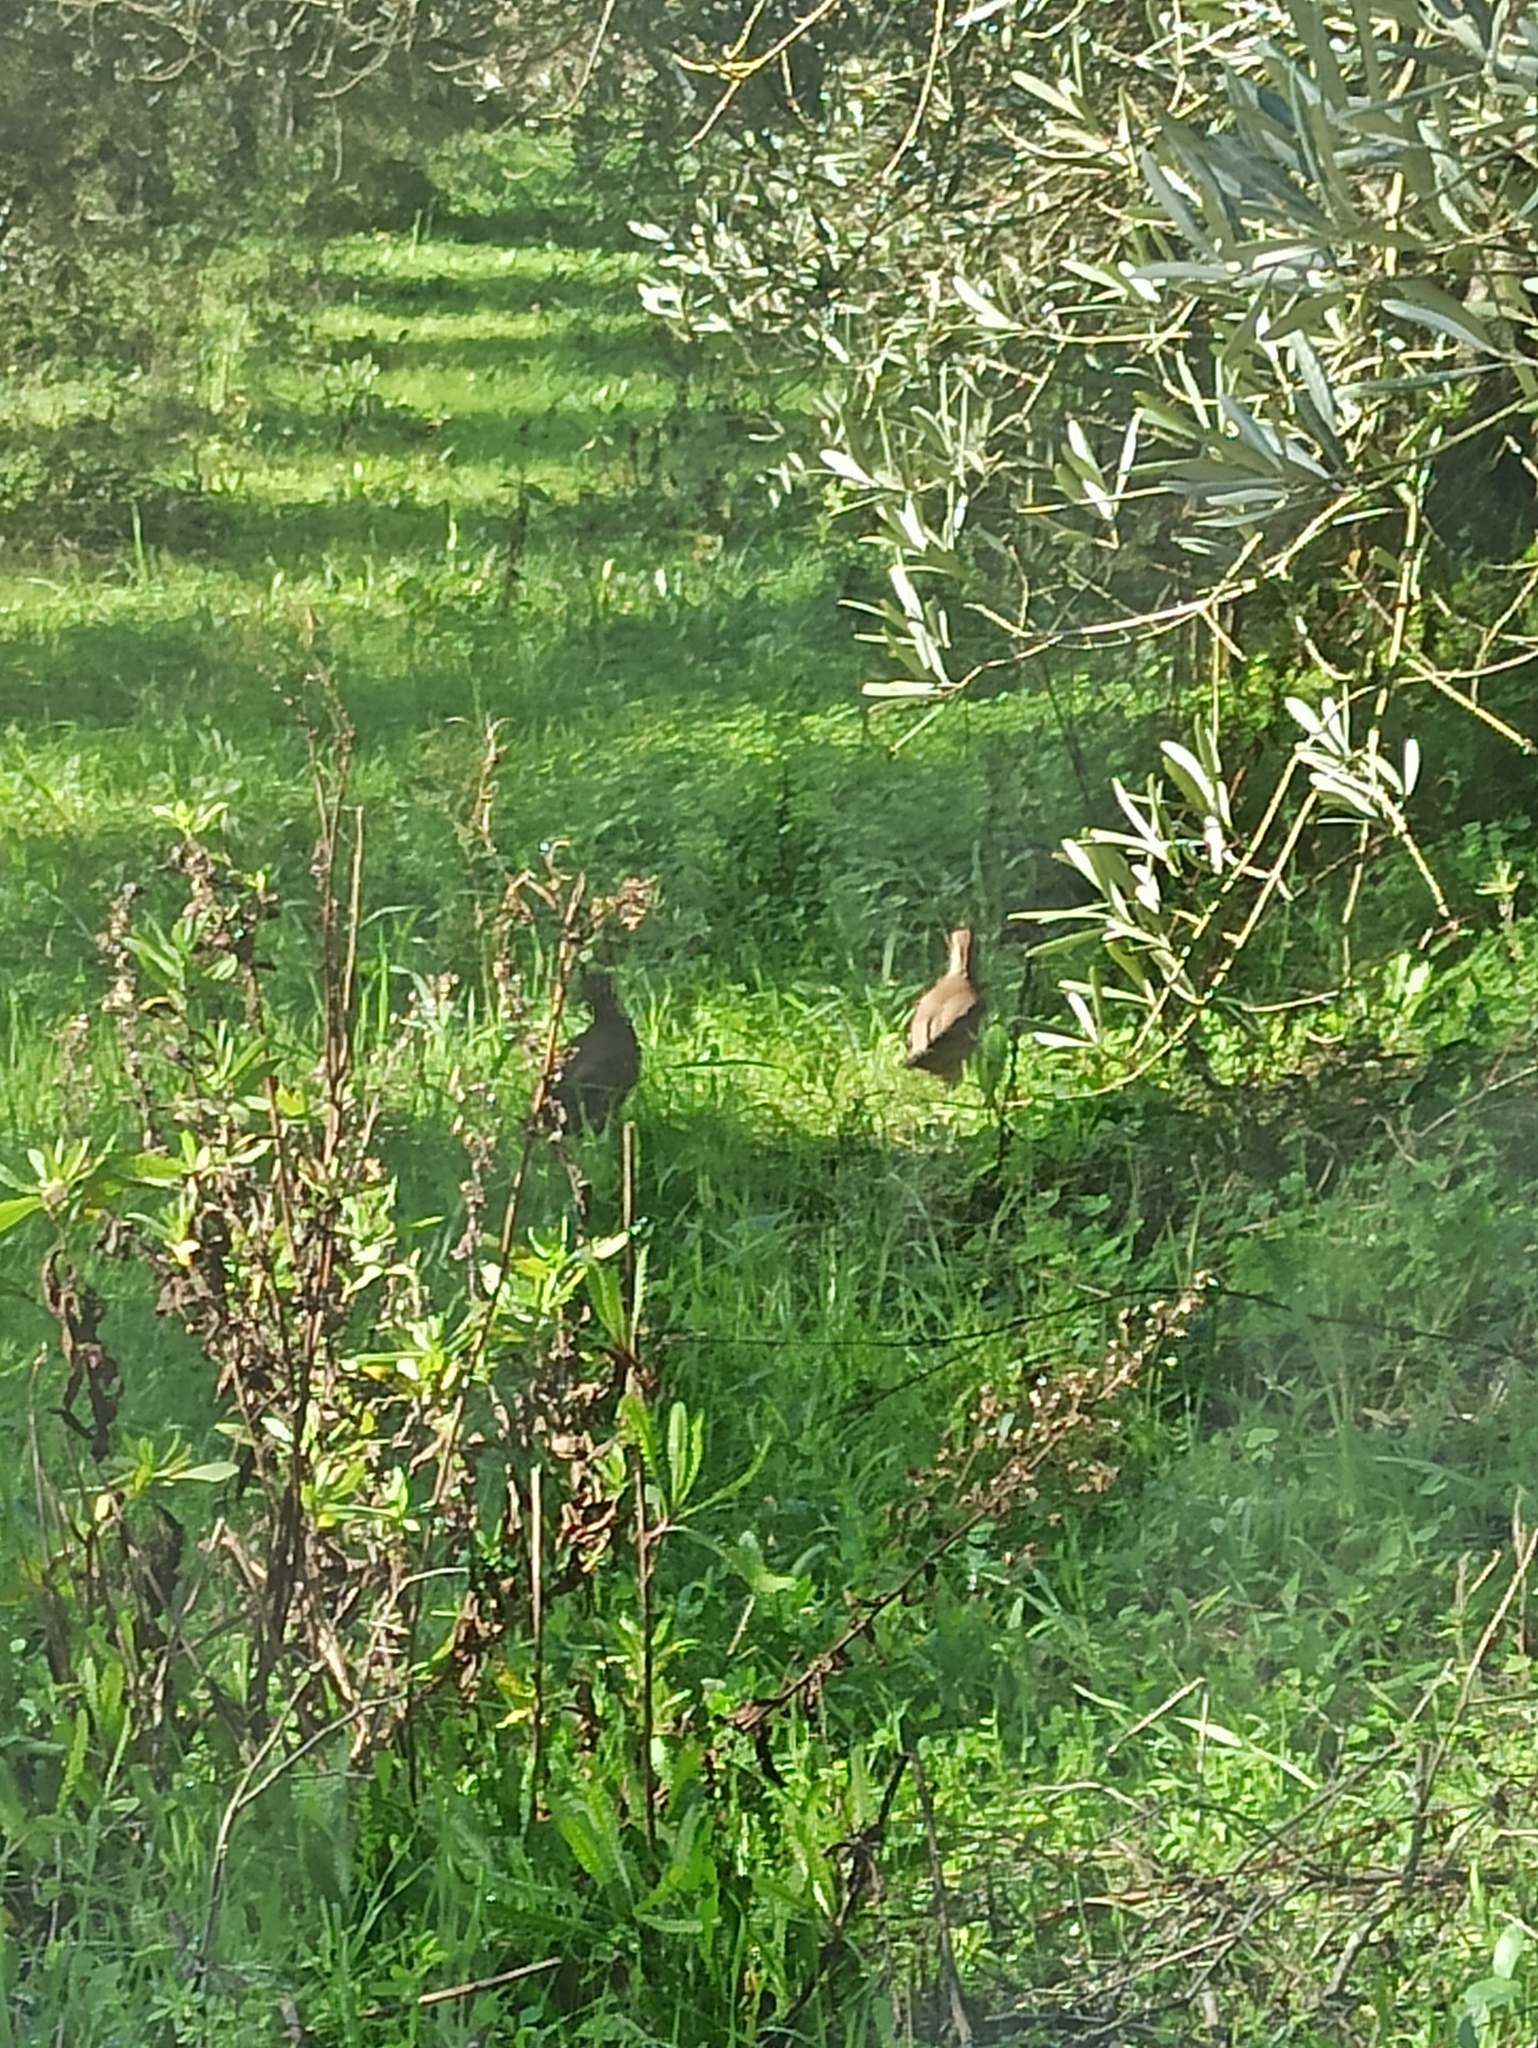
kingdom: Animalia
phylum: Chordata
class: Aves
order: Galliformes
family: Phasianidae
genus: Alectoris
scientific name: Alectoris rufa
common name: Red-legged partridge
